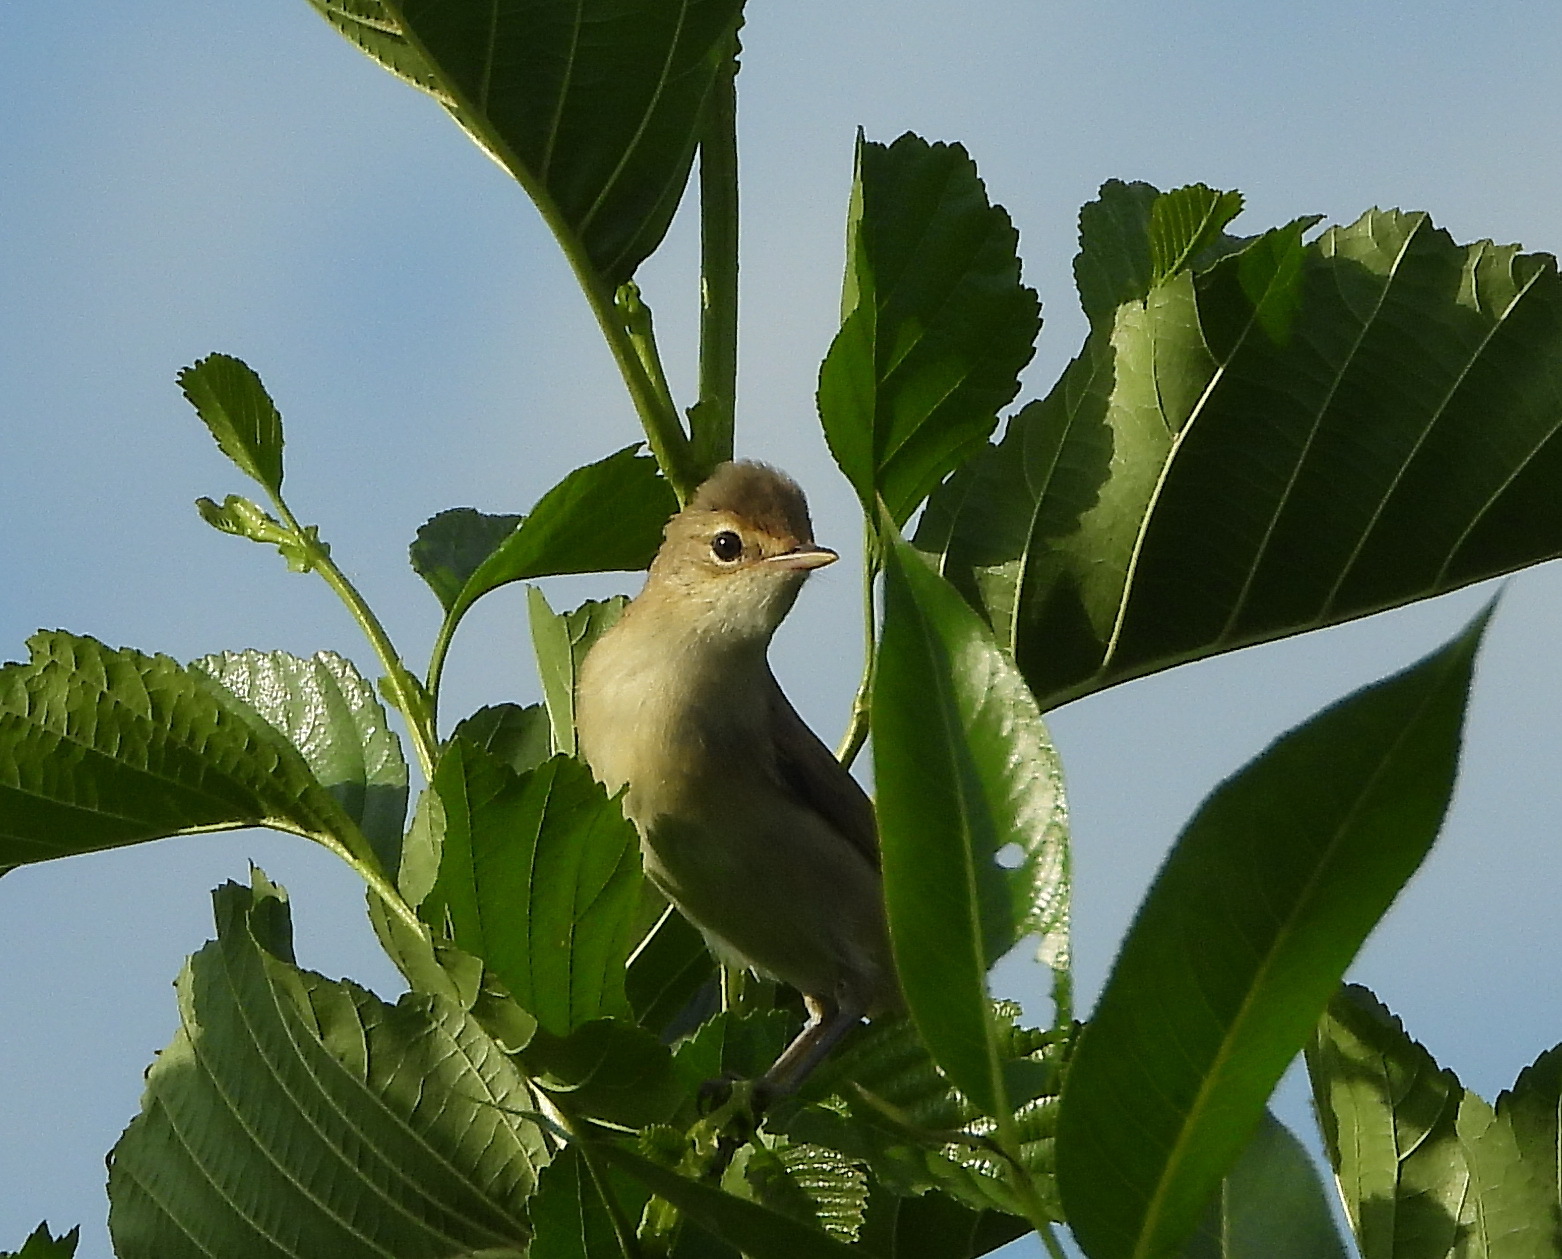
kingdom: Animalia
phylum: Chordata
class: Aves
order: Passeriformes
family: Acrocephalidae
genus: Iduna
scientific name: Iduna caligata
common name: Booted warbler
